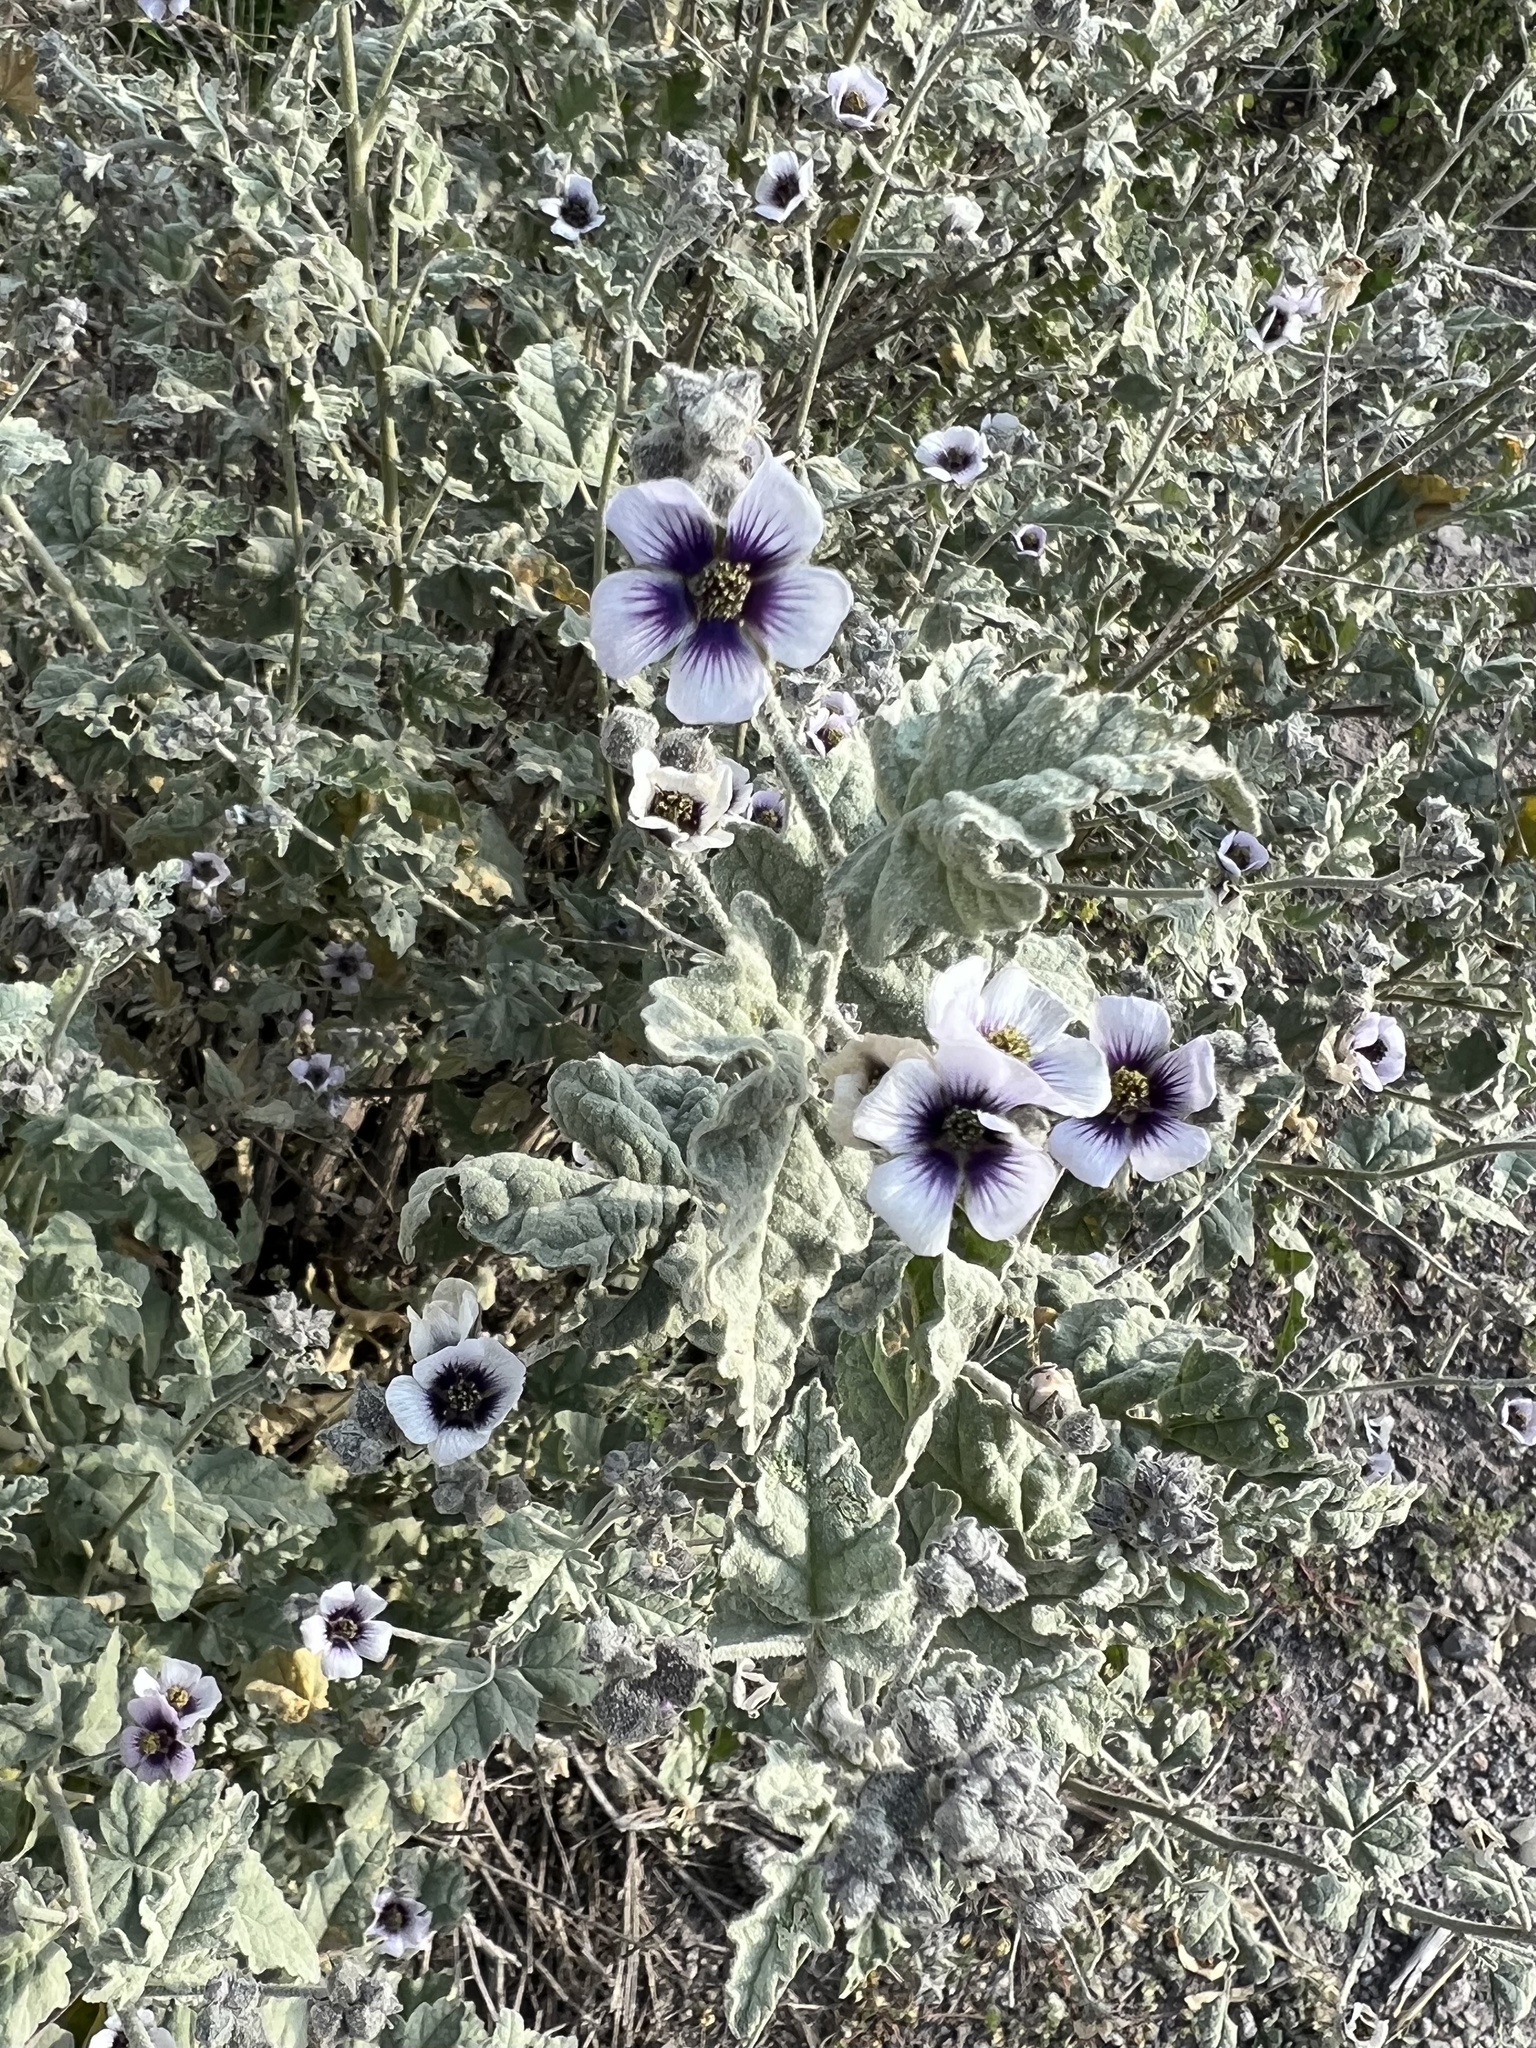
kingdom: Plantae
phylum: Tracheophyta
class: Magnoliopsida
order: Malvales
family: Malvaceae
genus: Tarasa
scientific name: Tarasa operculata
